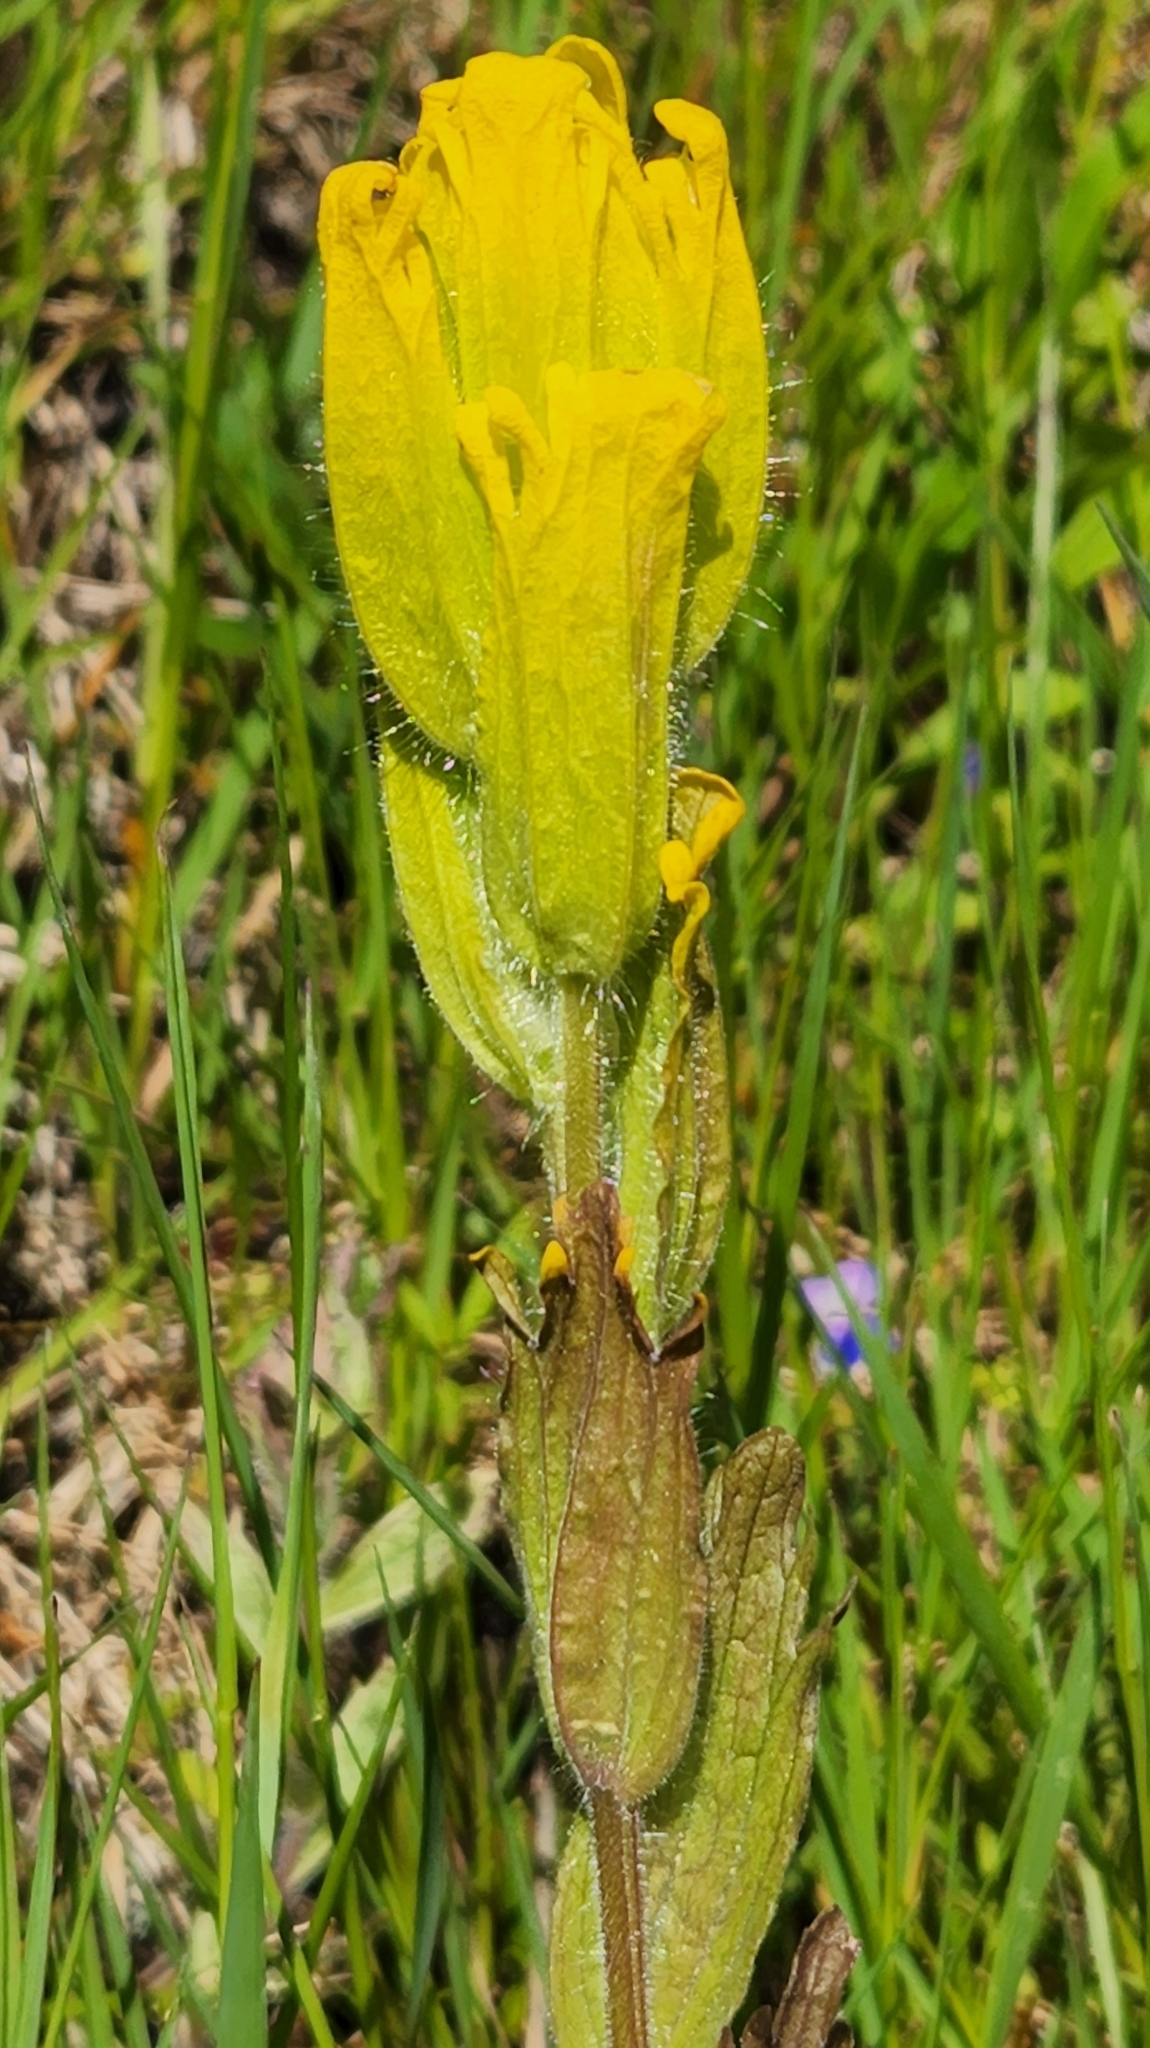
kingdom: Plantae
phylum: Tracheophyta
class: Magnoliopsida
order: Lamiales
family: Orobanchaceae
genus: Castilleja
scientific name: Castilleja levisecta
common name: Golden paintbrush
